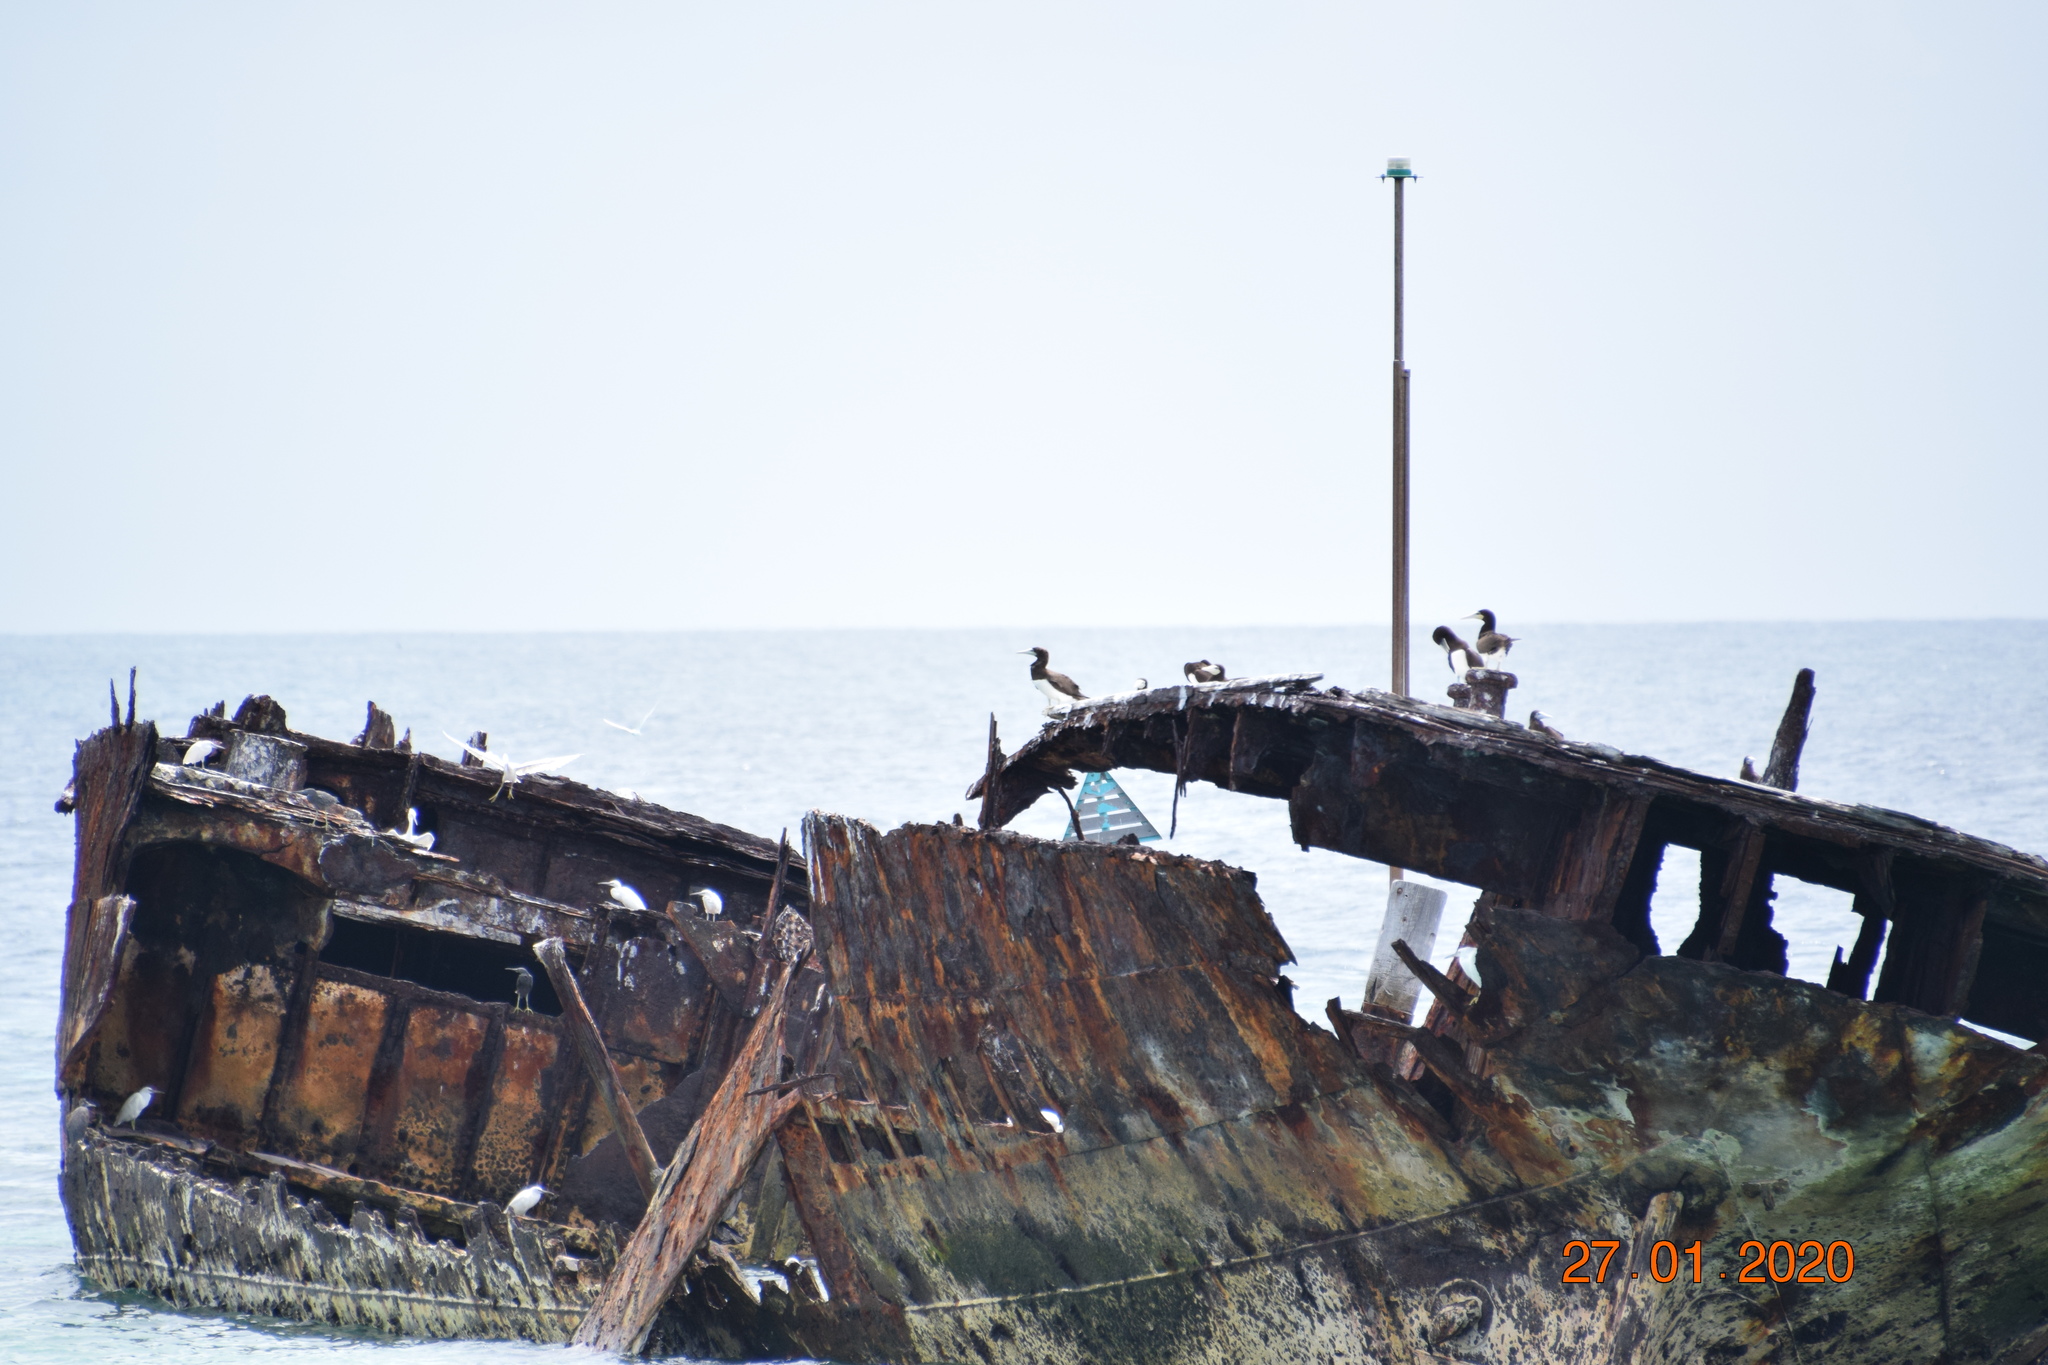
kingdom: Animalia
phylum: Chordata
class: Aves
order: Suliformes
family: Sulidae
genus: Sula
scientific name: Sula leucogaster
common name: Brown booby
